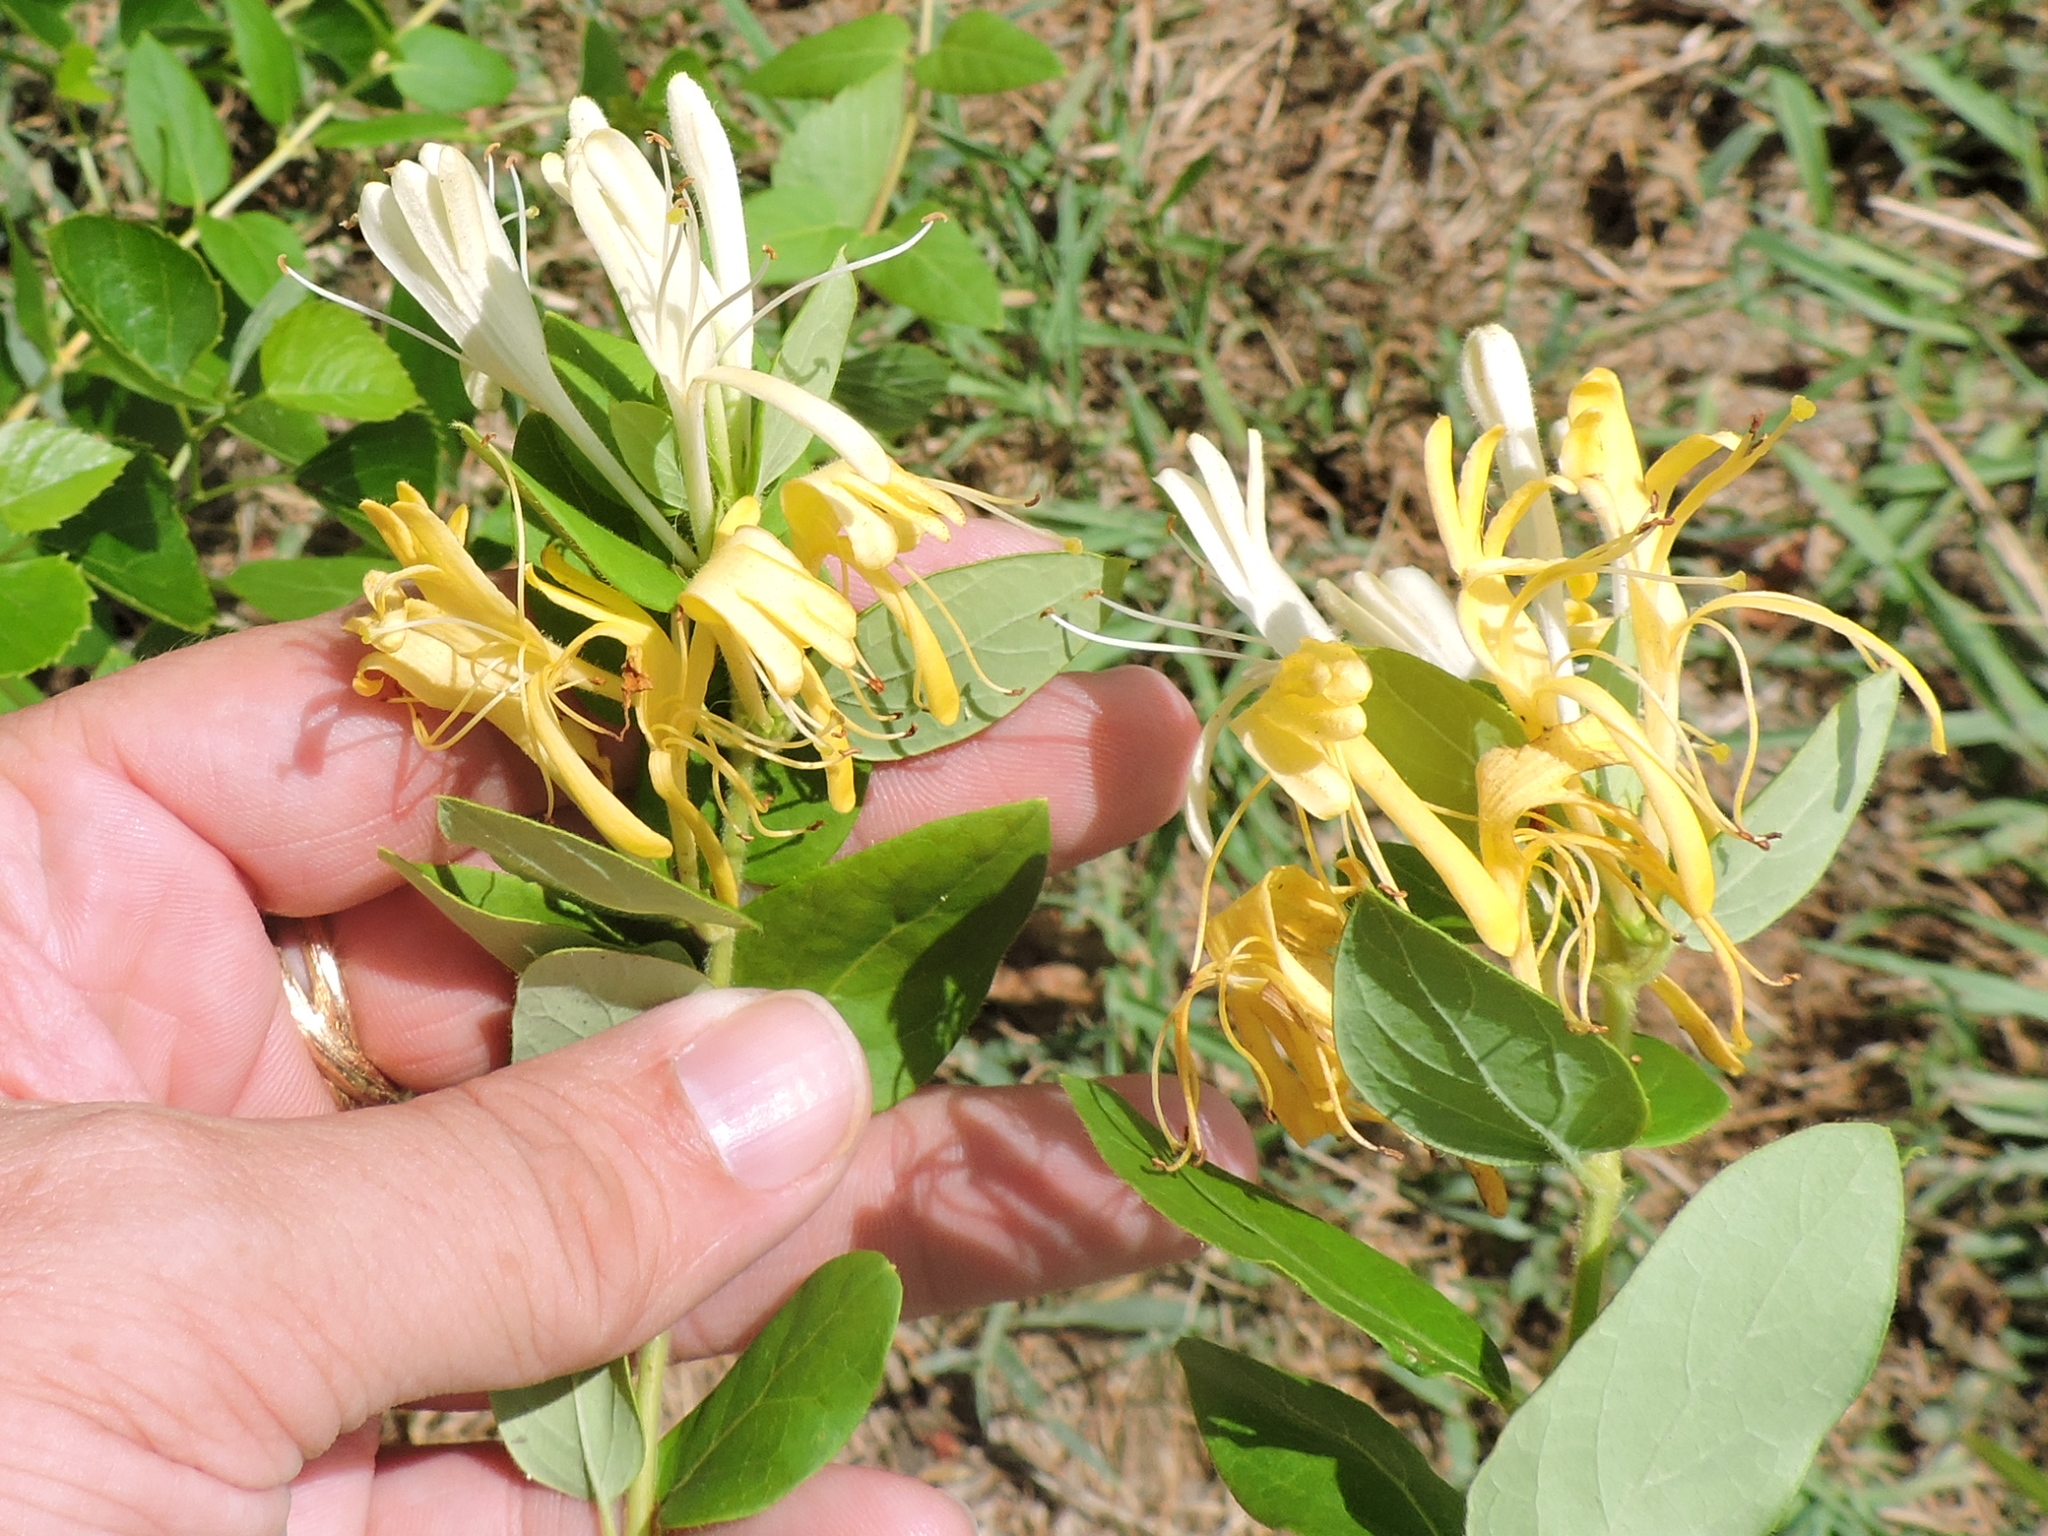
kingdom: Plantae
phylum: Tracheophyta
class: Magnoliopsida
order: Dipsacales
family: Caprifoliaceae
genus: Lonicera
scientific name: Lonicera japonica
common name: Japanese honeysuckle
